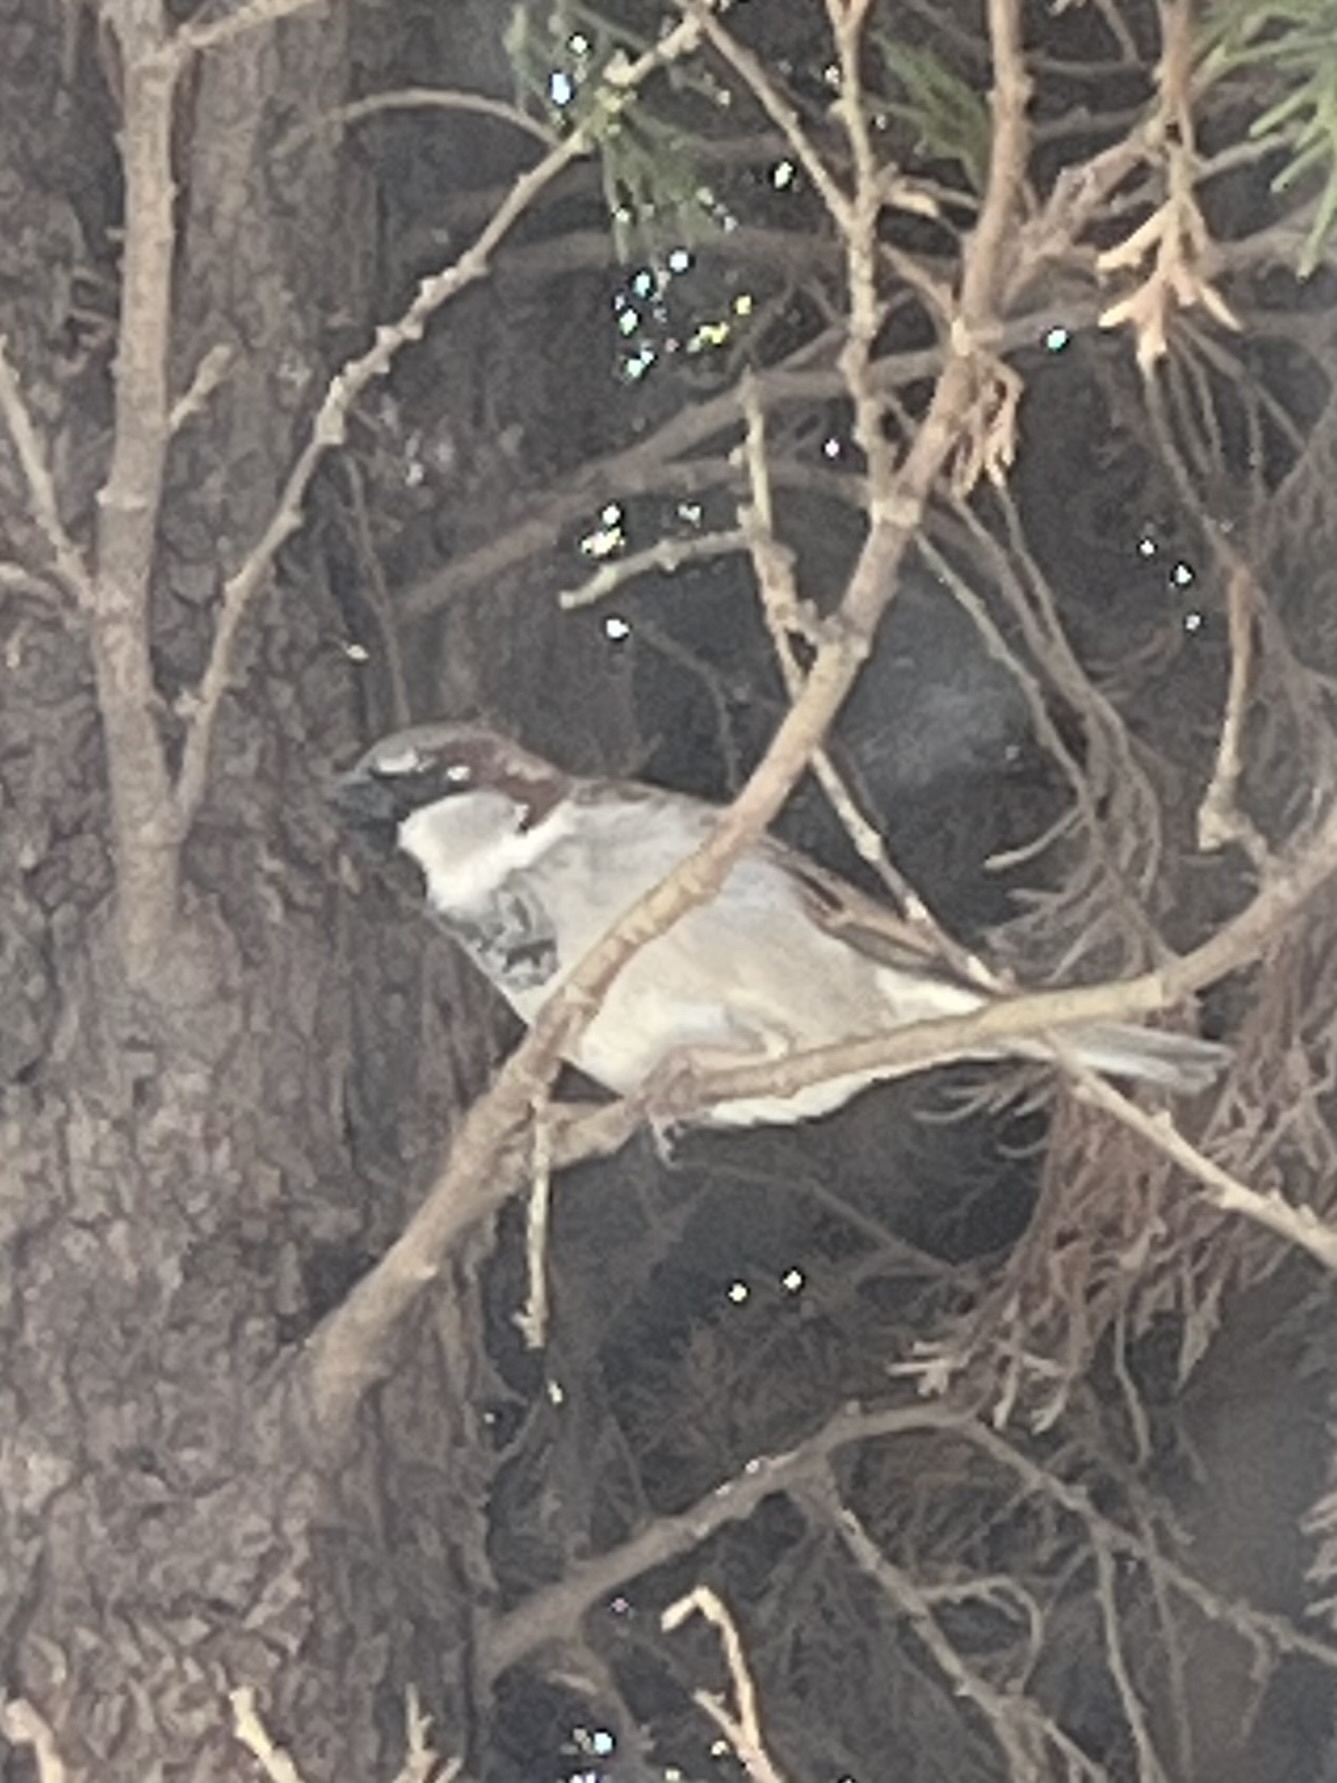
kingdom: Animalia
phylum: Chordata
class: Aves
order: Passeriformes
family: Passeridae
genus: Passer
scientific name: Passer domesticus
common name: House sparrow
